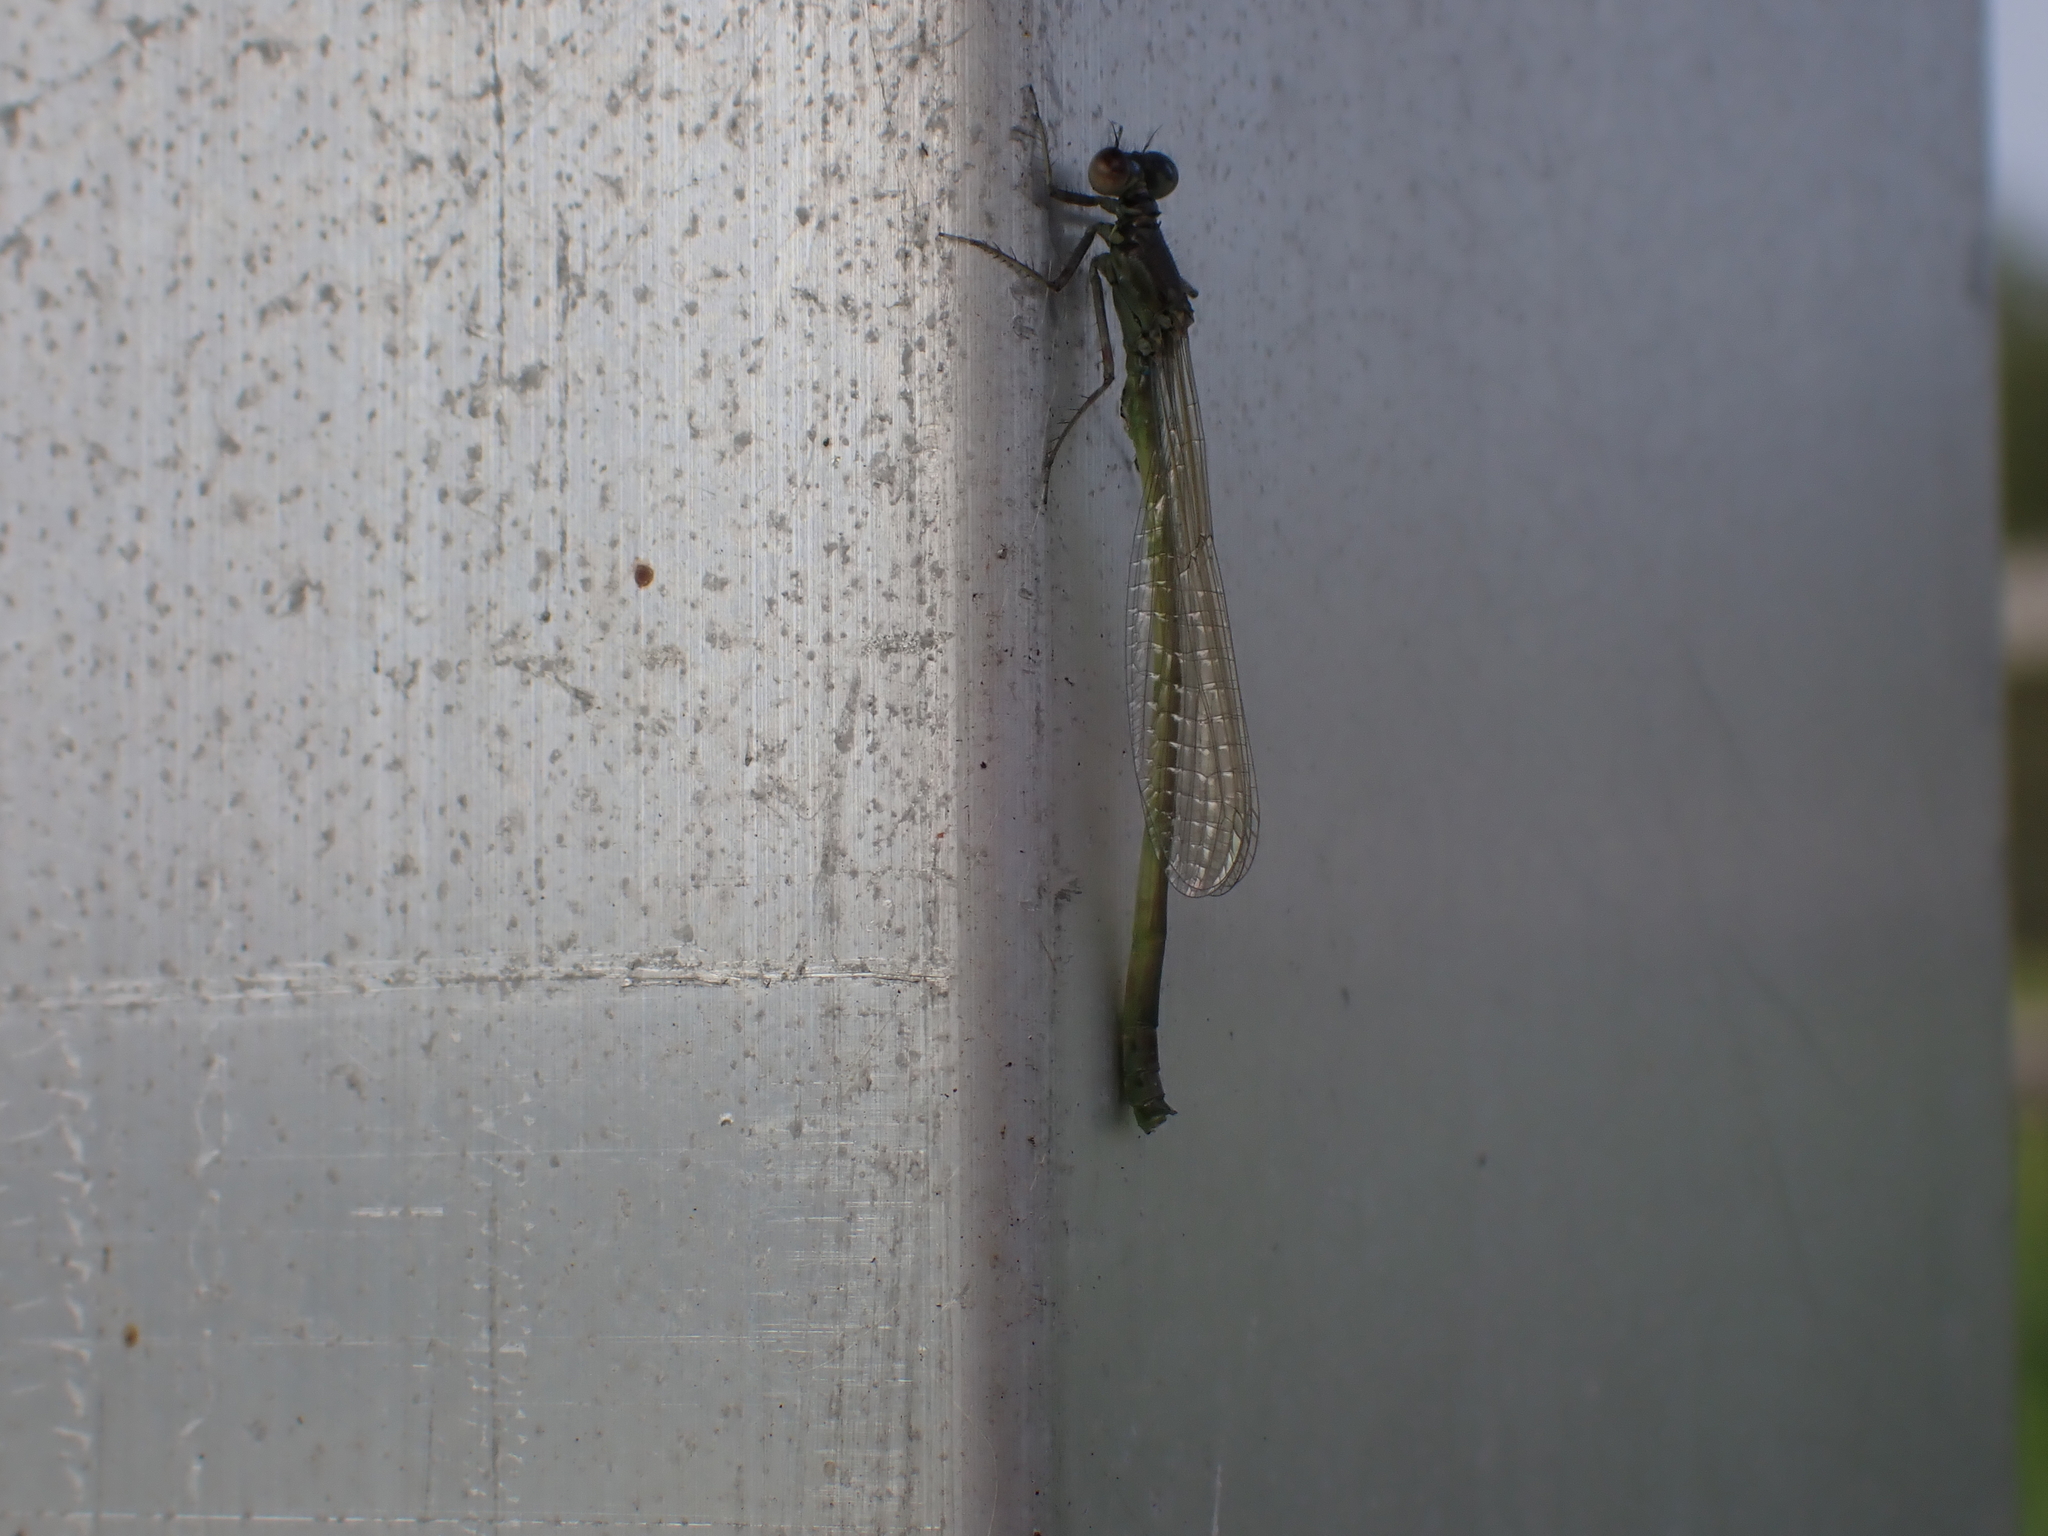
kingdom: Animalia
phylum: Arthropoda
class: Insecta
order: Odonata
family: Coenagrionidae
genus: Ischnura
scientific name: Ischnura cervula
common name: Pacific forktail
